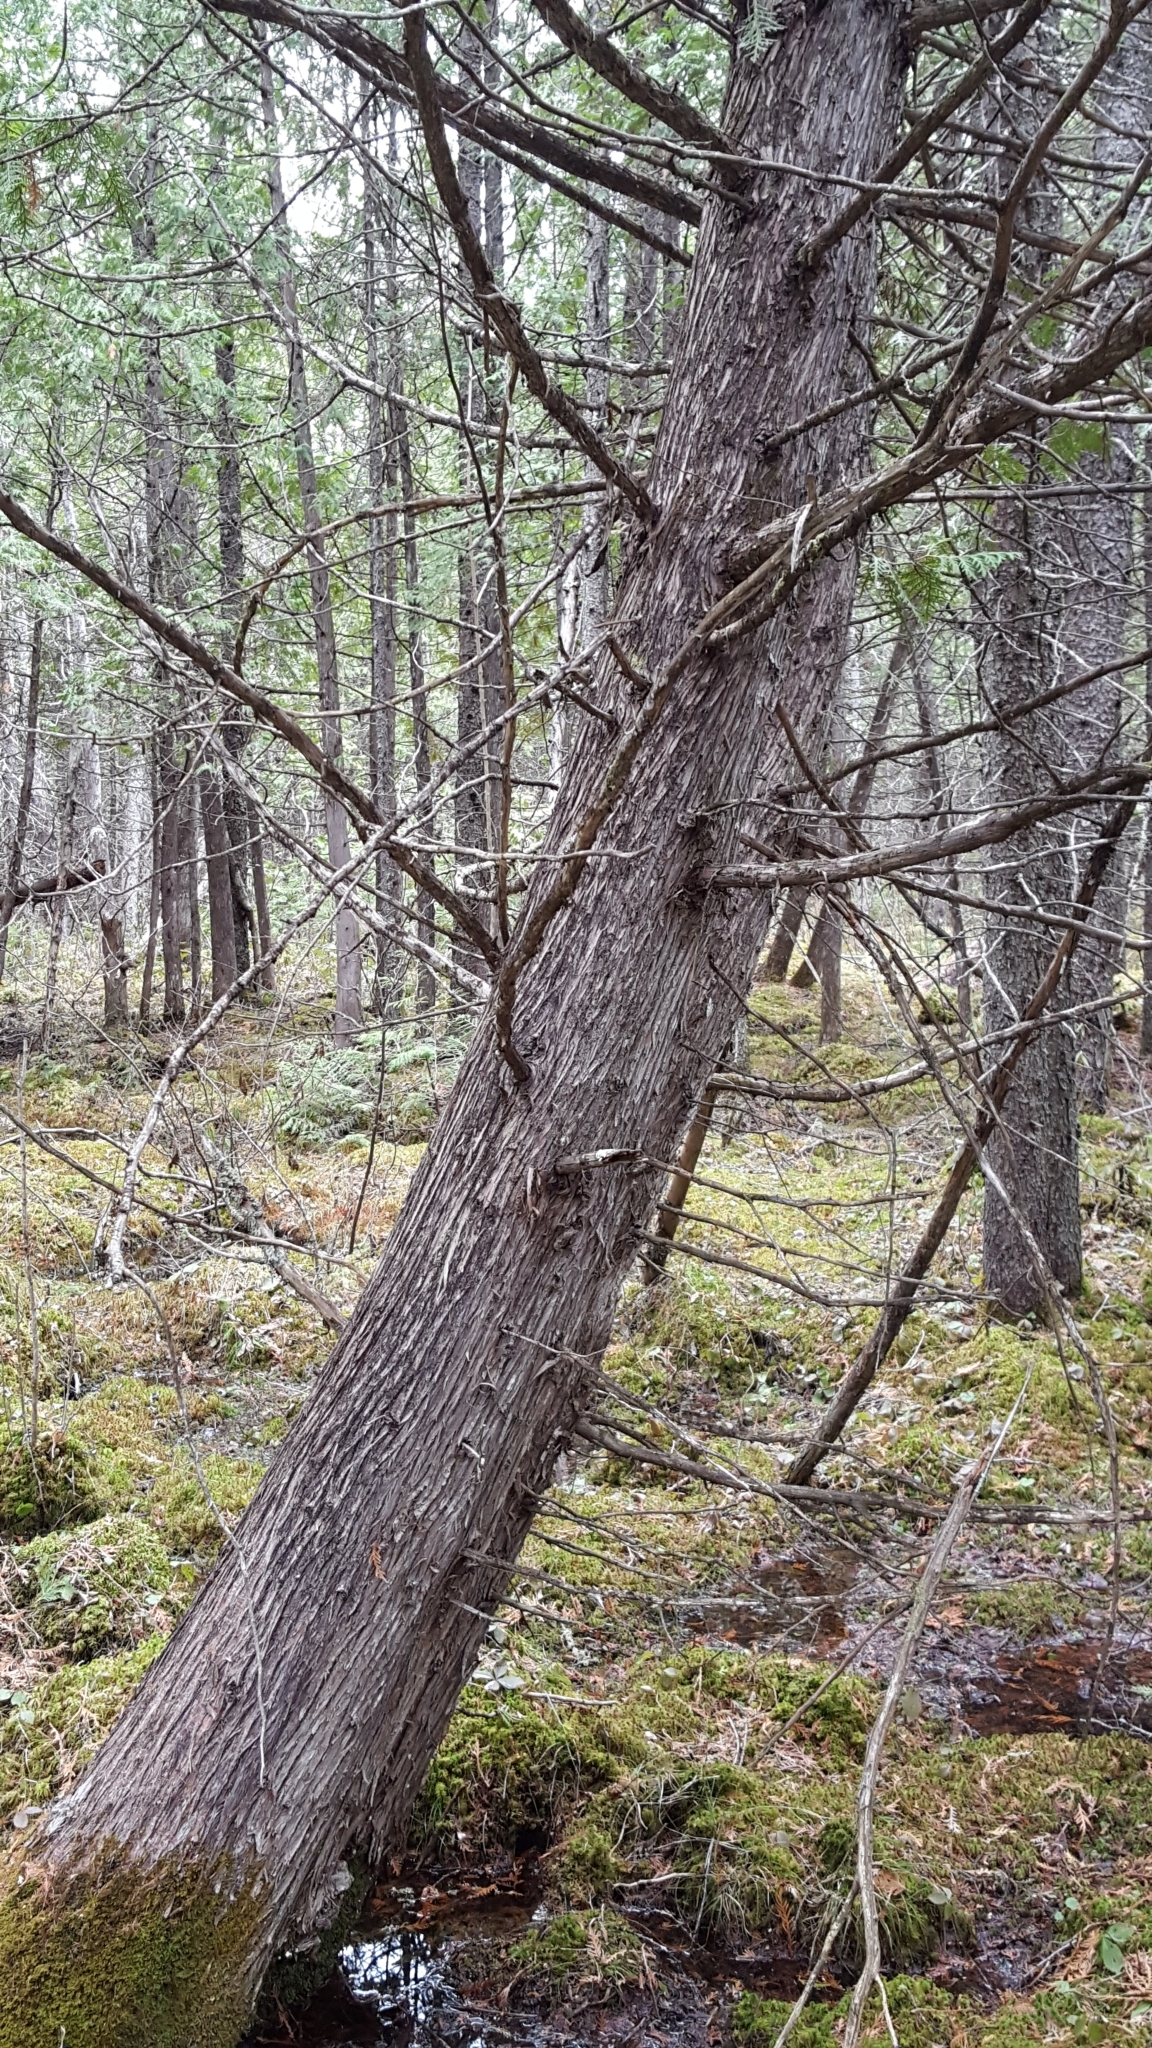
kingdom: Plantae
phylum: Tracheophyta
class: Pinopsida
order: Pinales
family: Cupressaceae
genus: Thuja
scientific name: Thuja occidentalis
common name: Northern white-cedar
